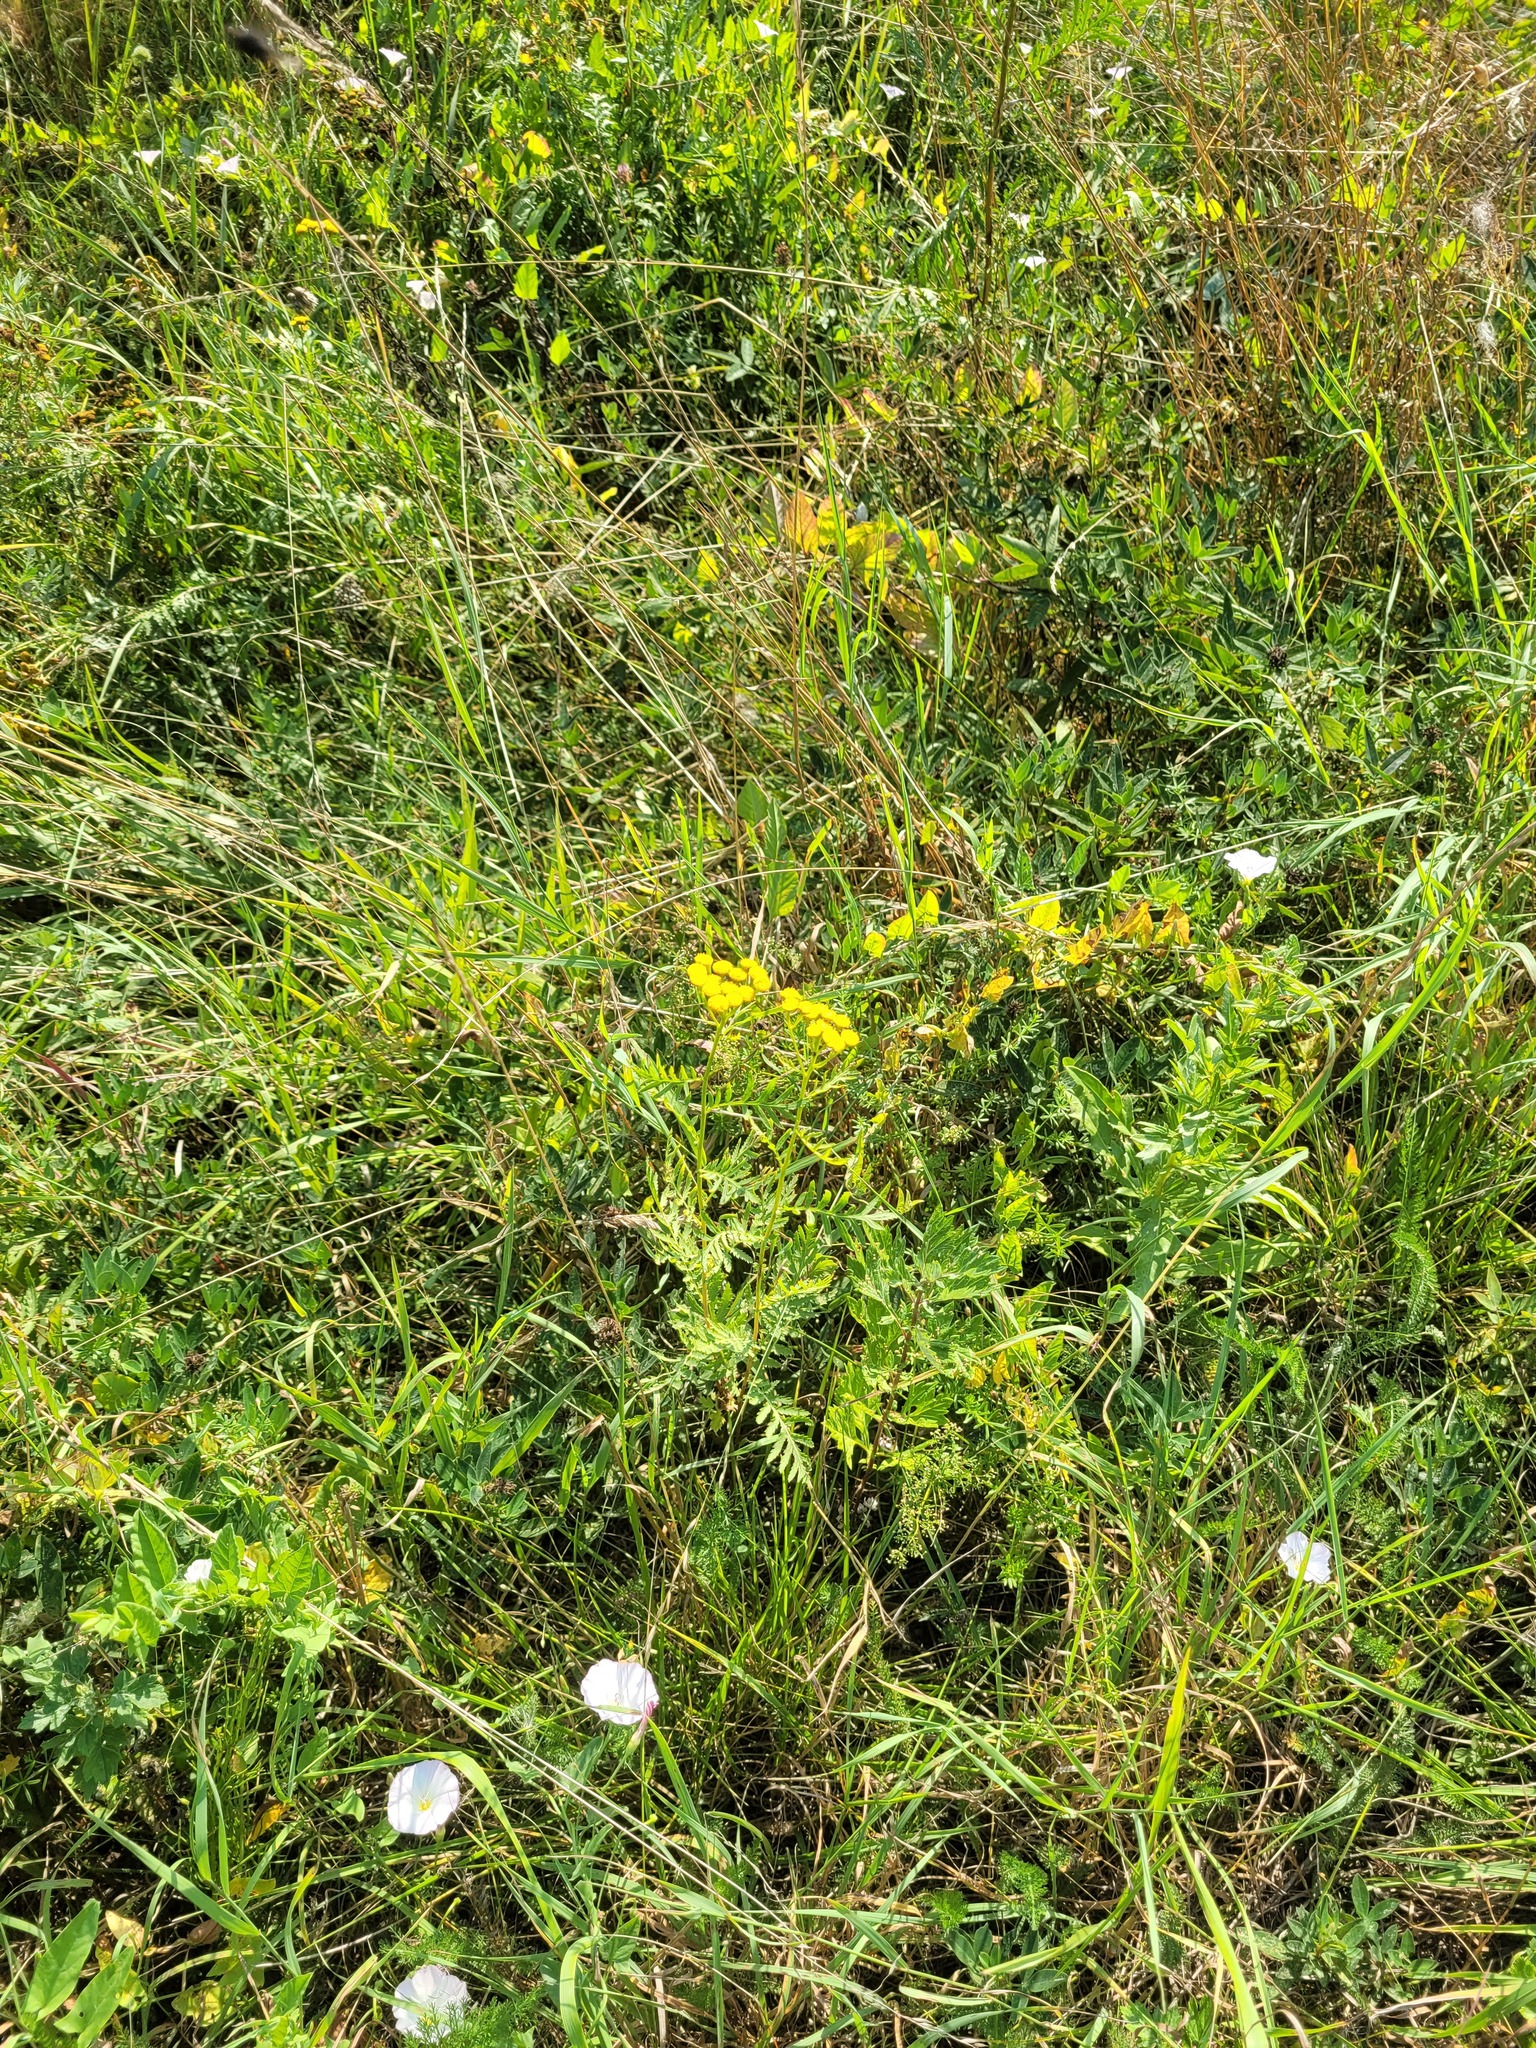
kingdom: Plantae
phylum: Tracheophyta
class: Magnoliopsida
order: Asterales
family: Asteraceae
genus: Tanacetum
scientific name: Tanacetum vulgare
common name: Common tansy
